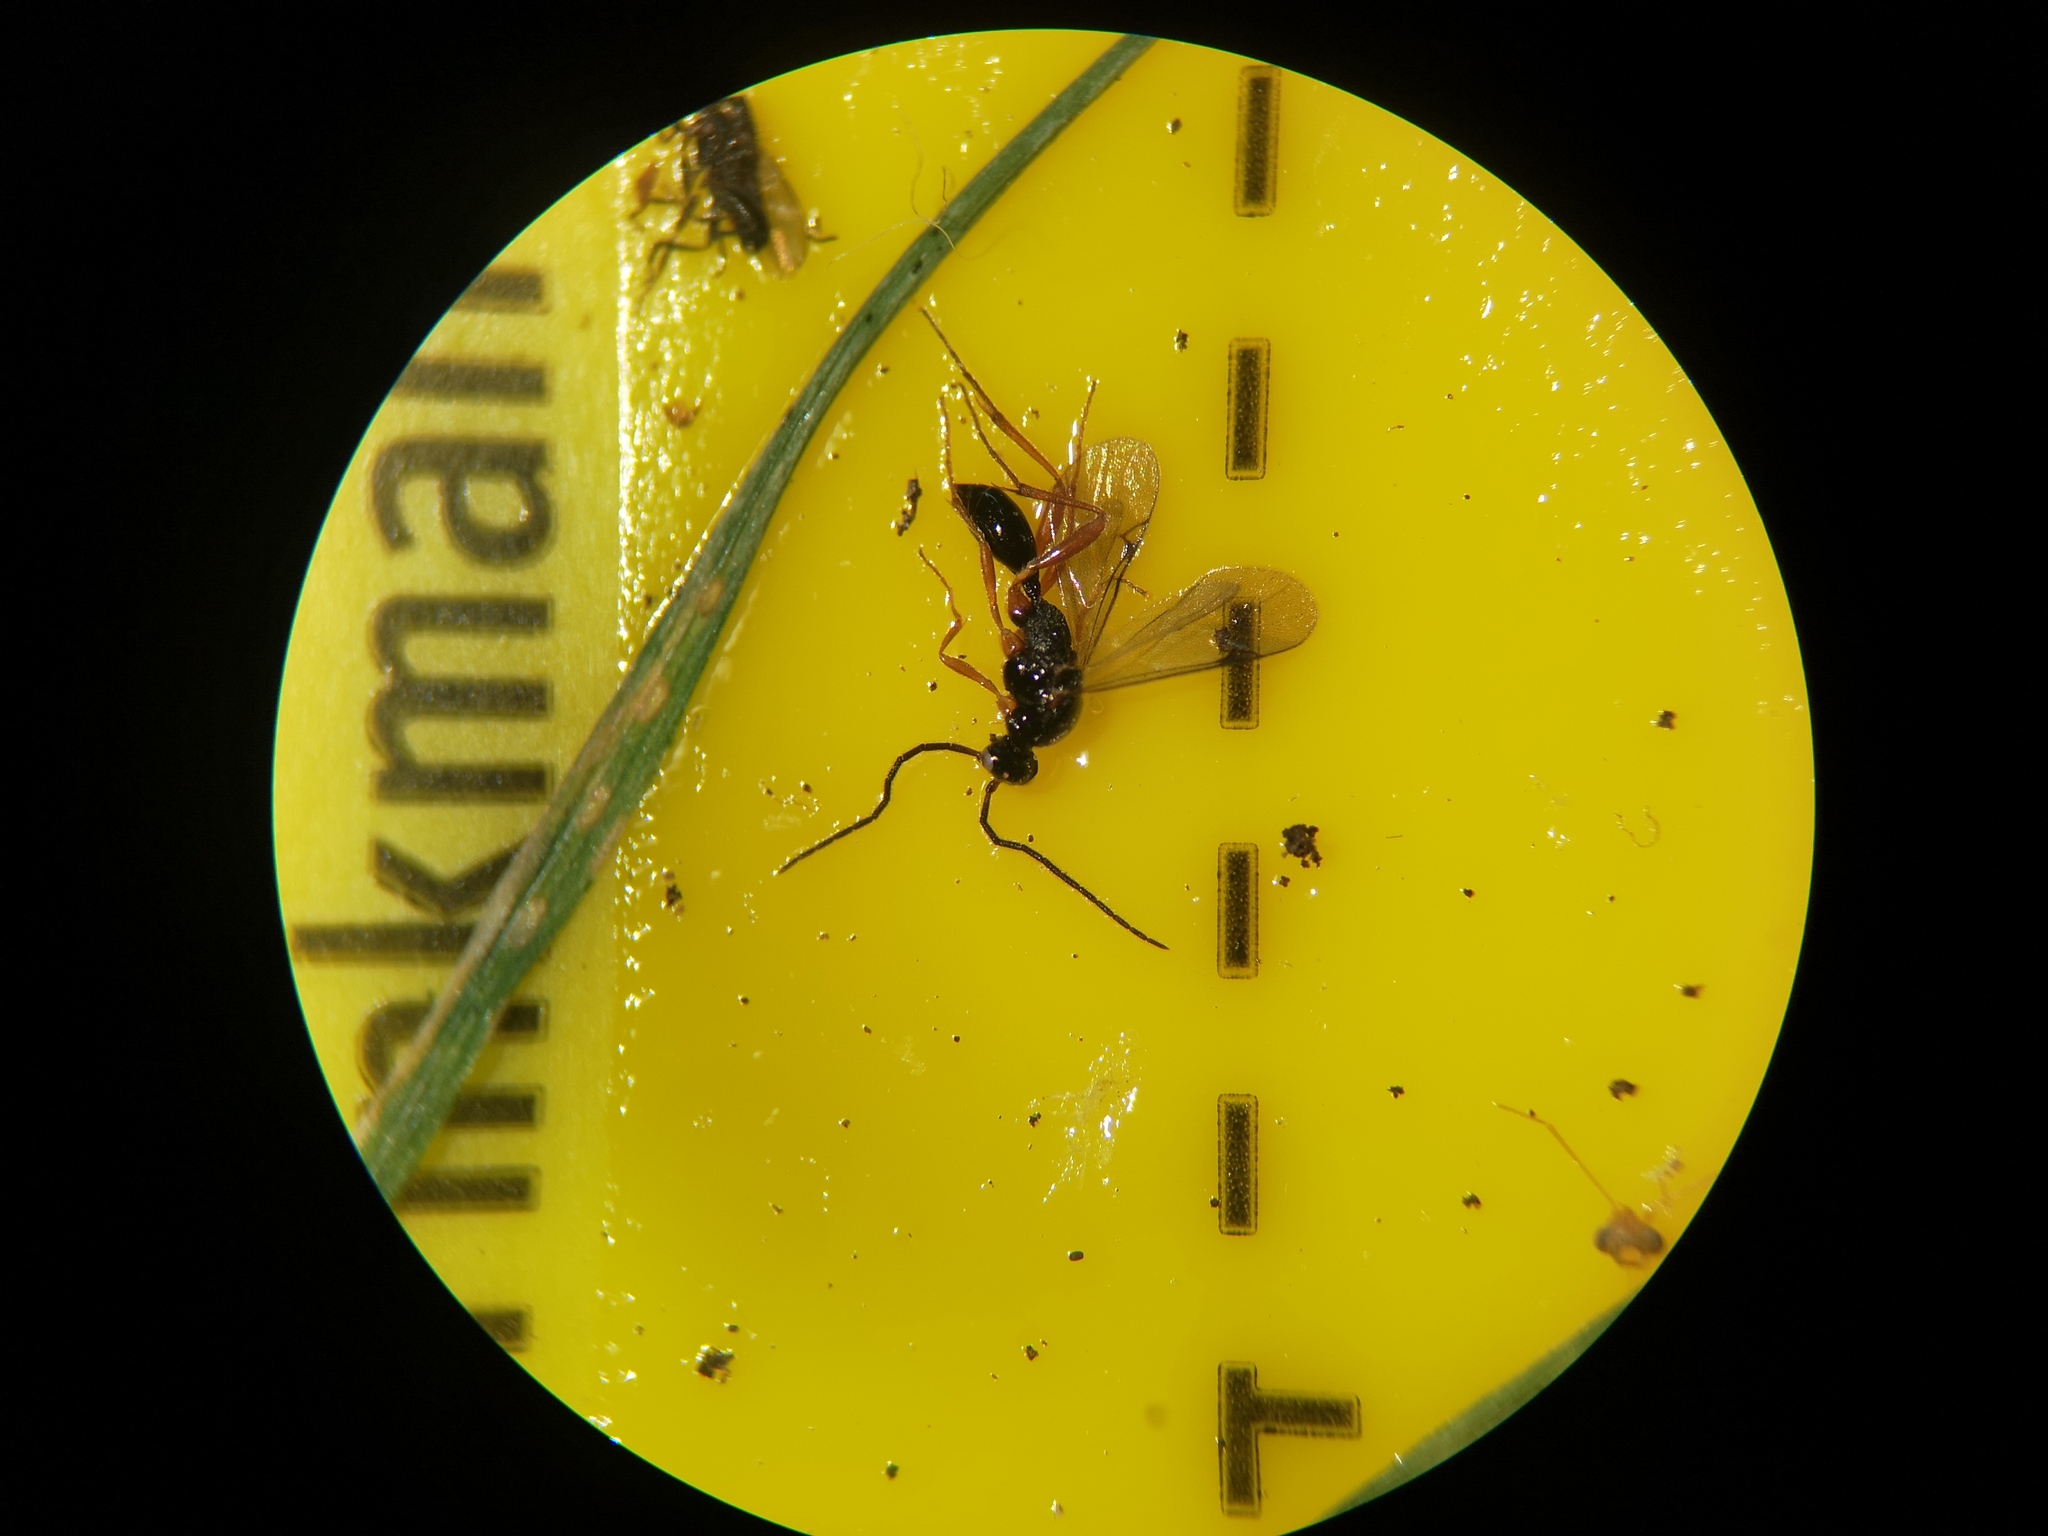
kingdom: Animalia
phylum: Arthropoda
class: Insecta
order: Hymenoptera
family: Proctotrupidae
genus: Phaneroserphus
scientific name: Phaneroserphus calcar
